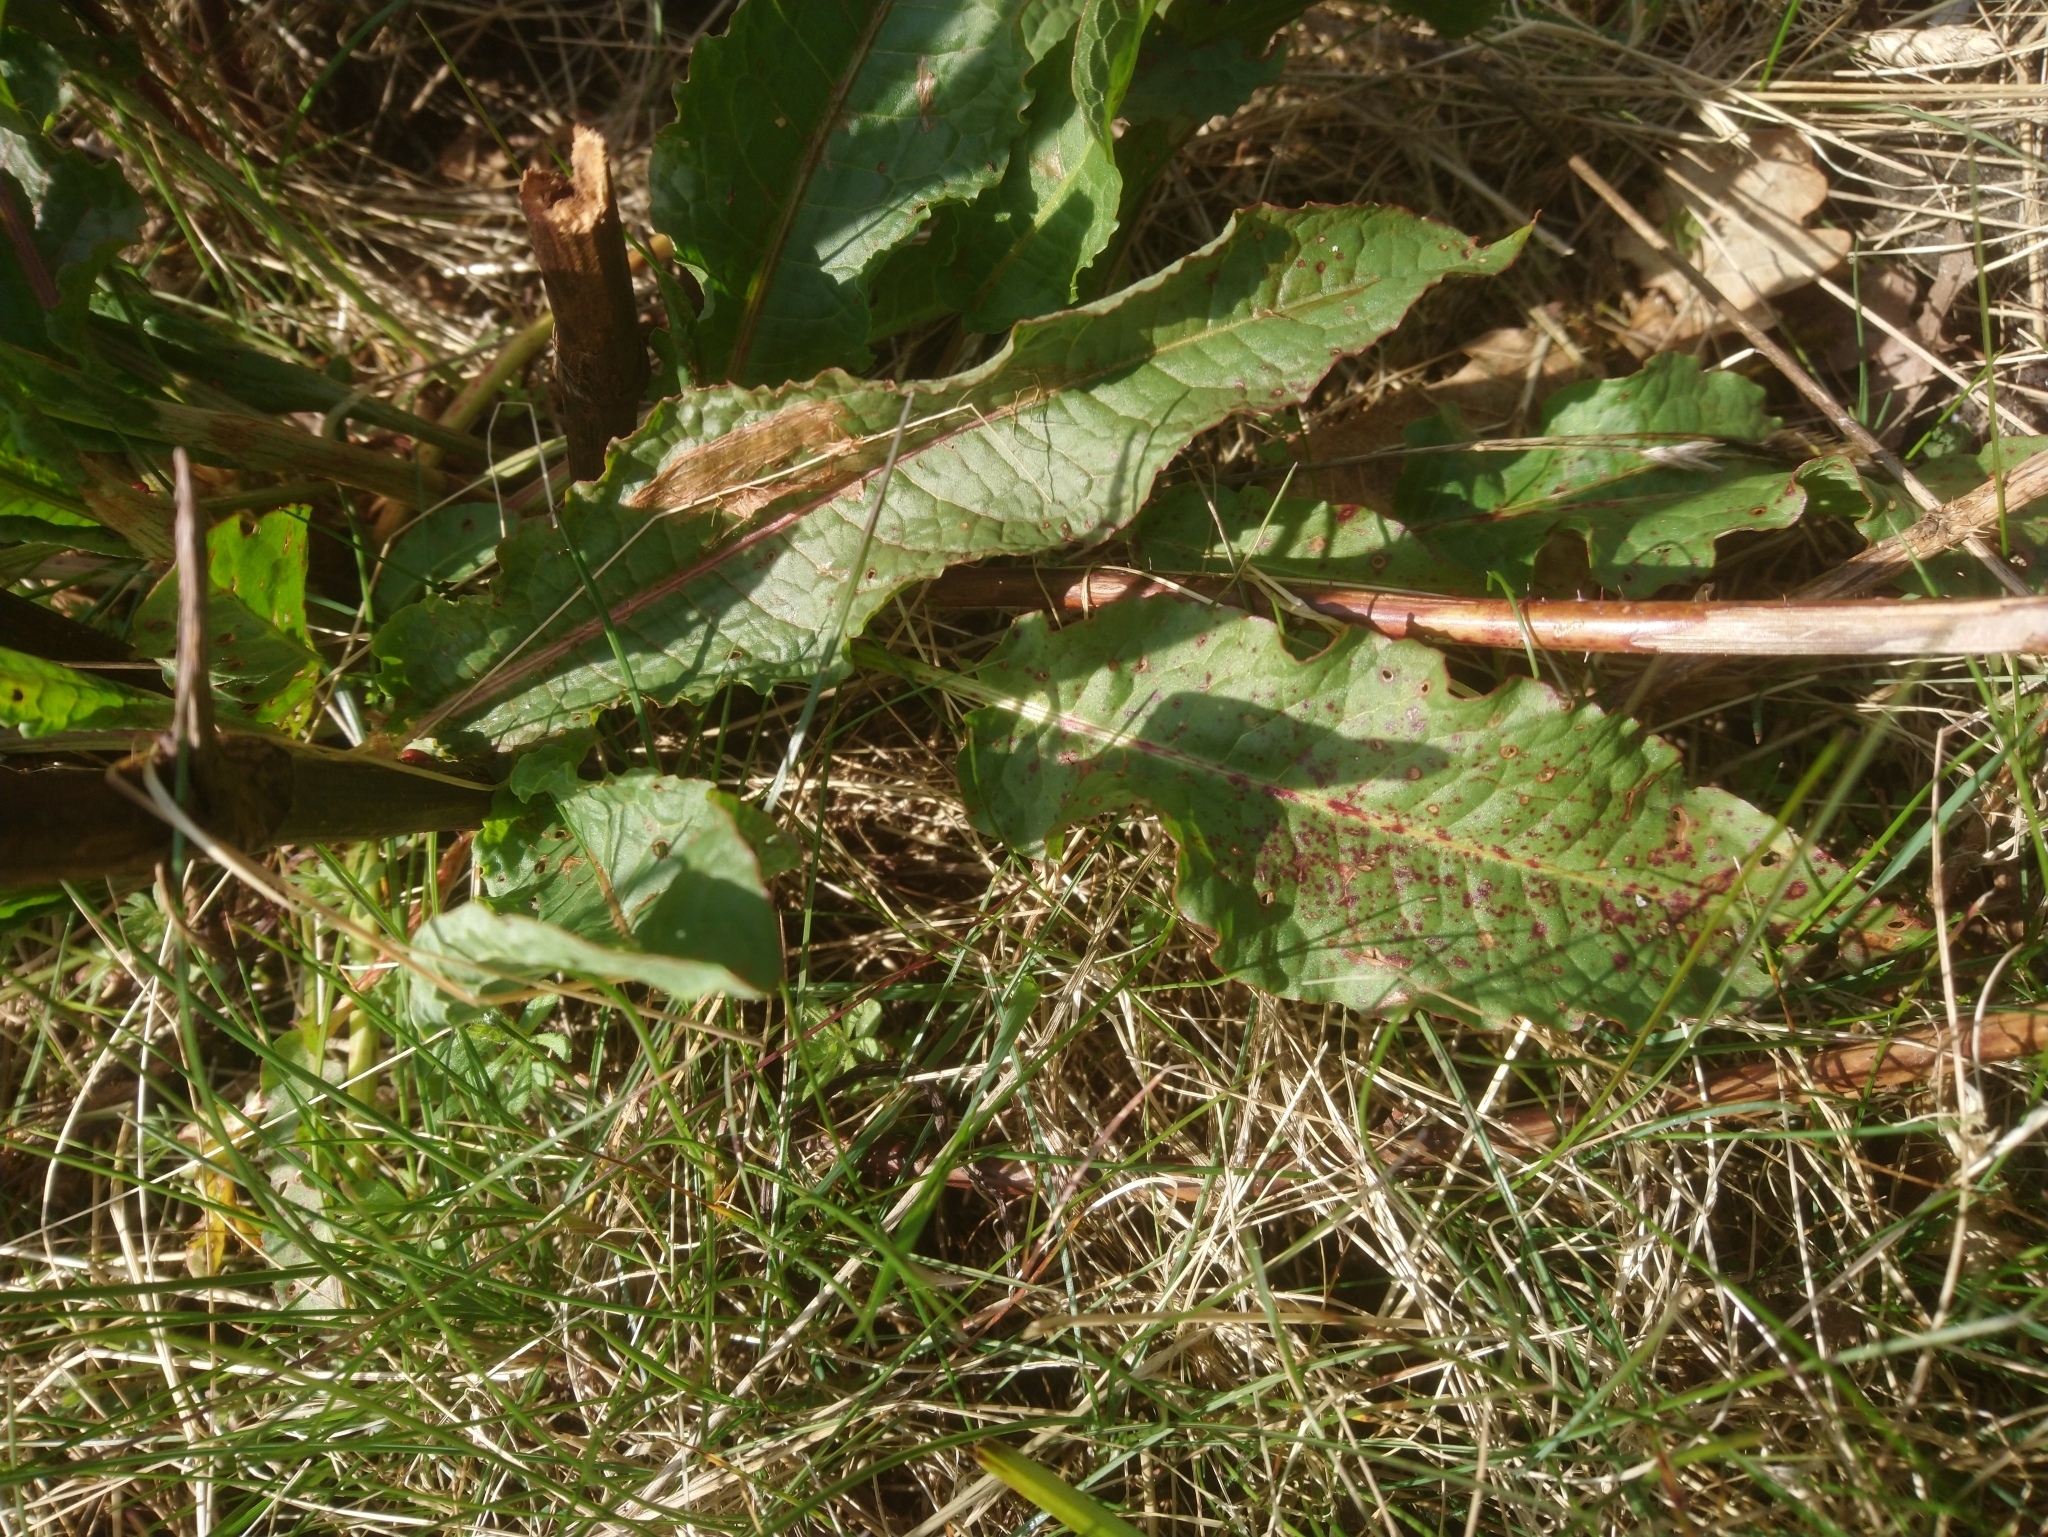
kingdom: Plantae
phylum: Tracheophyta
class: Magnoliopsida
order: Caryophyllales
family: Polygonaceae
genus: Rumex
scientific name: Rumex crispus
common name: Curled dock
